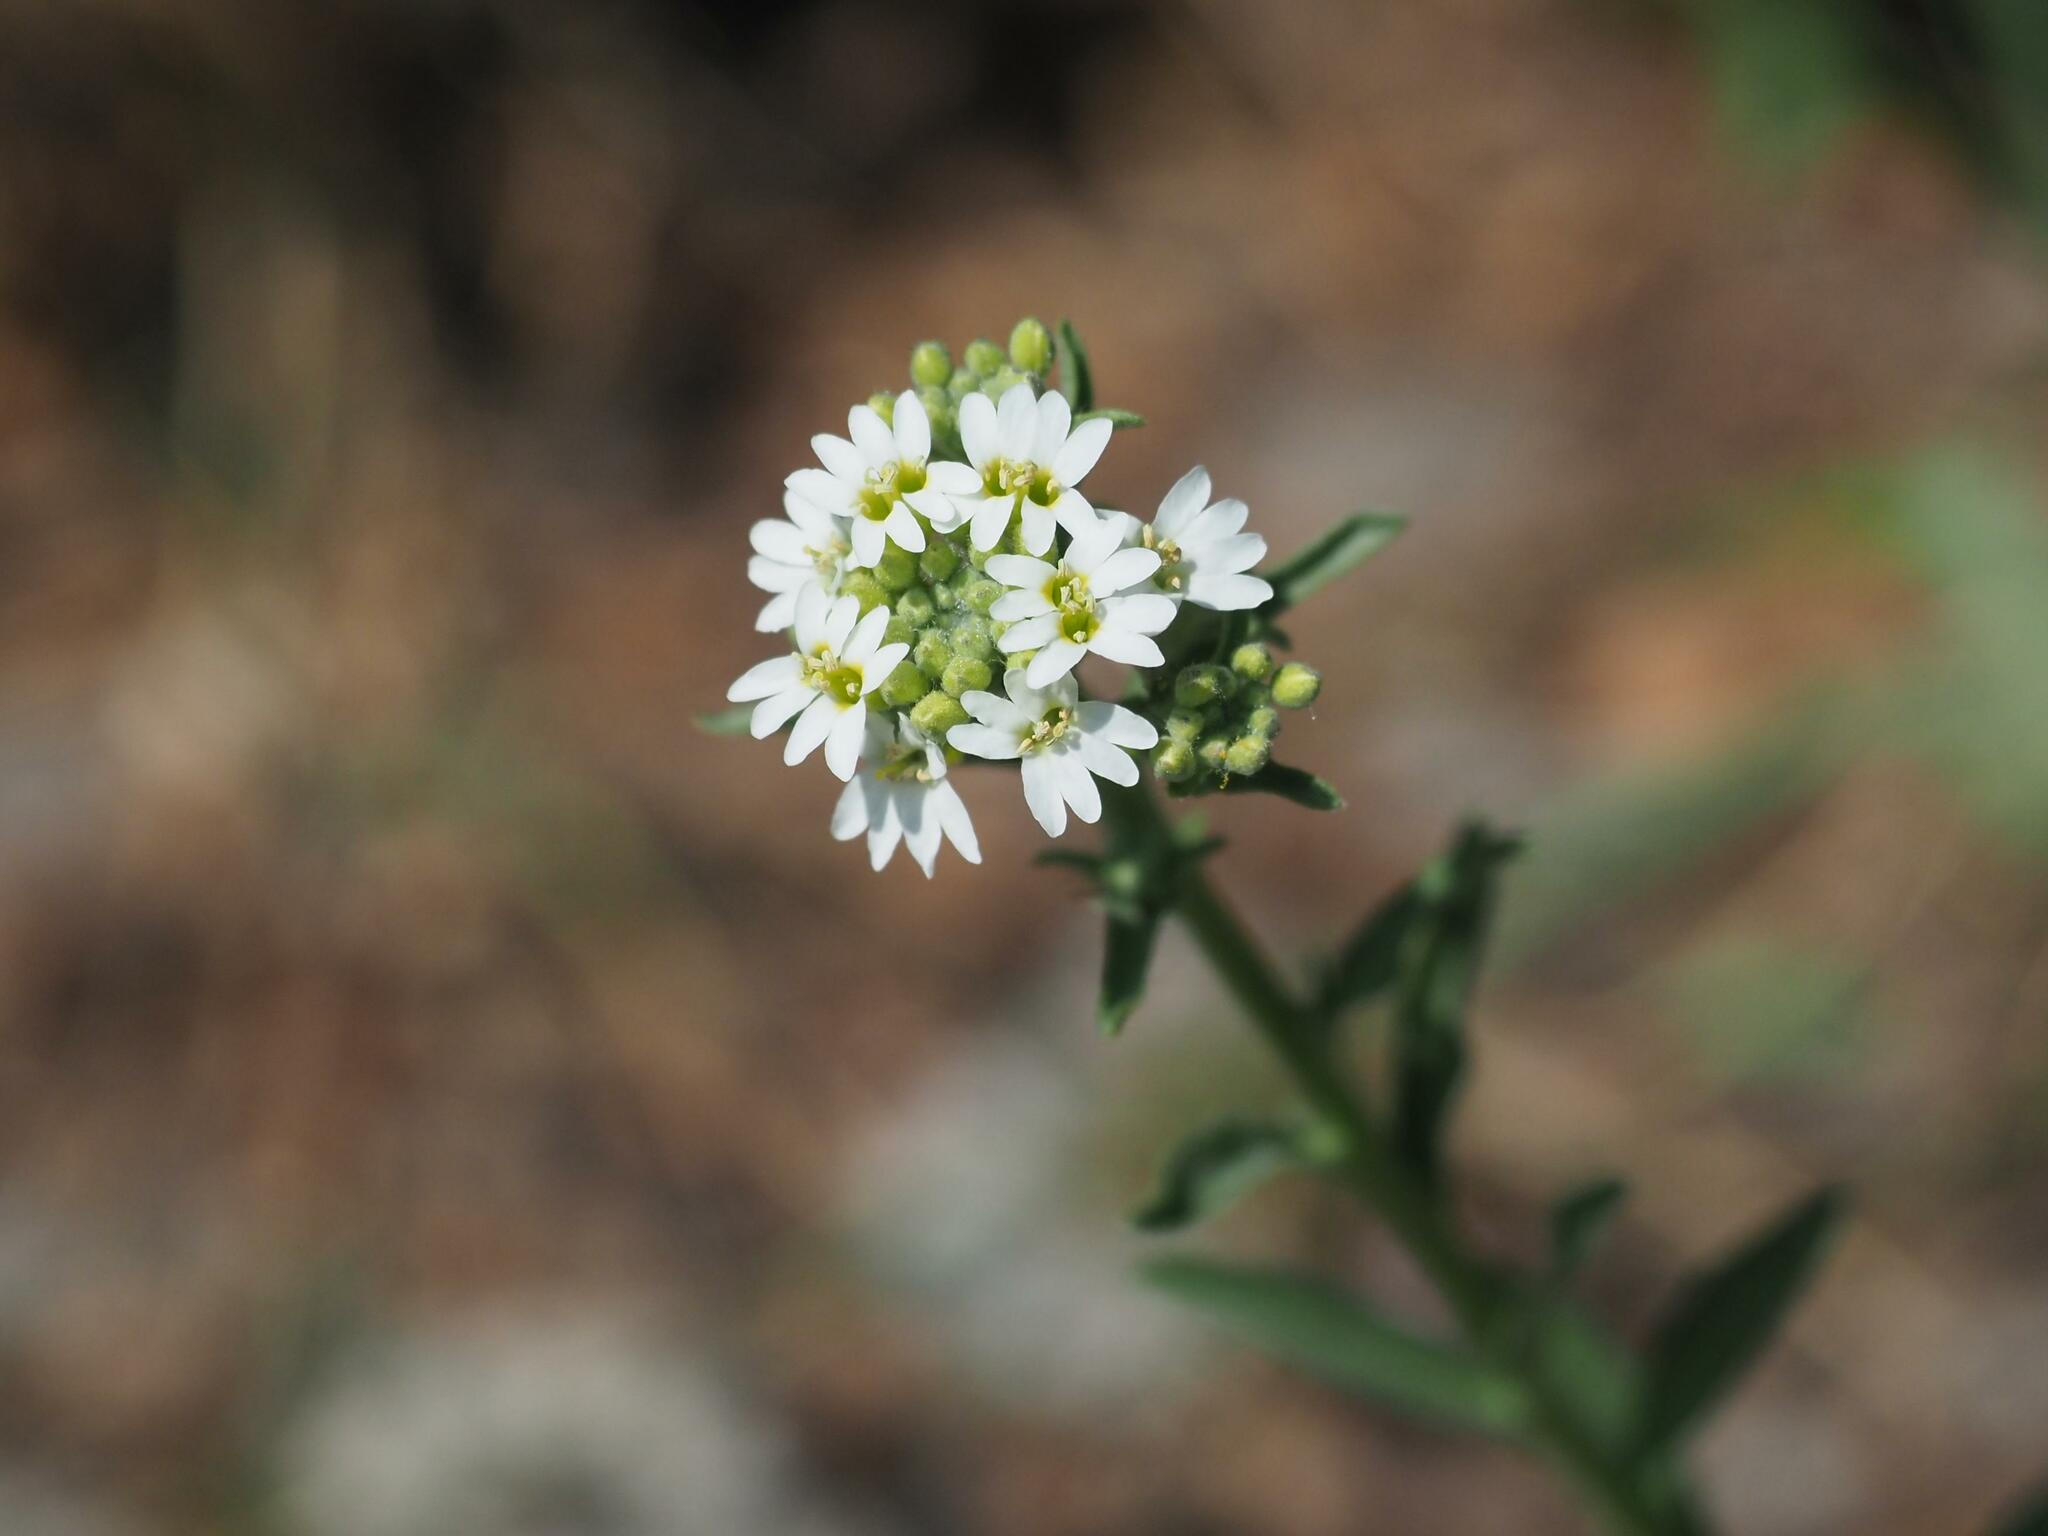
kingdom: Plantae
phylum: Tracheophyta
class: Magnoliopsida
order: Brassicales
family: Brassicaceae
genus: Berteroa
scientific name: Berteroa incana
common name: Hoary alison
